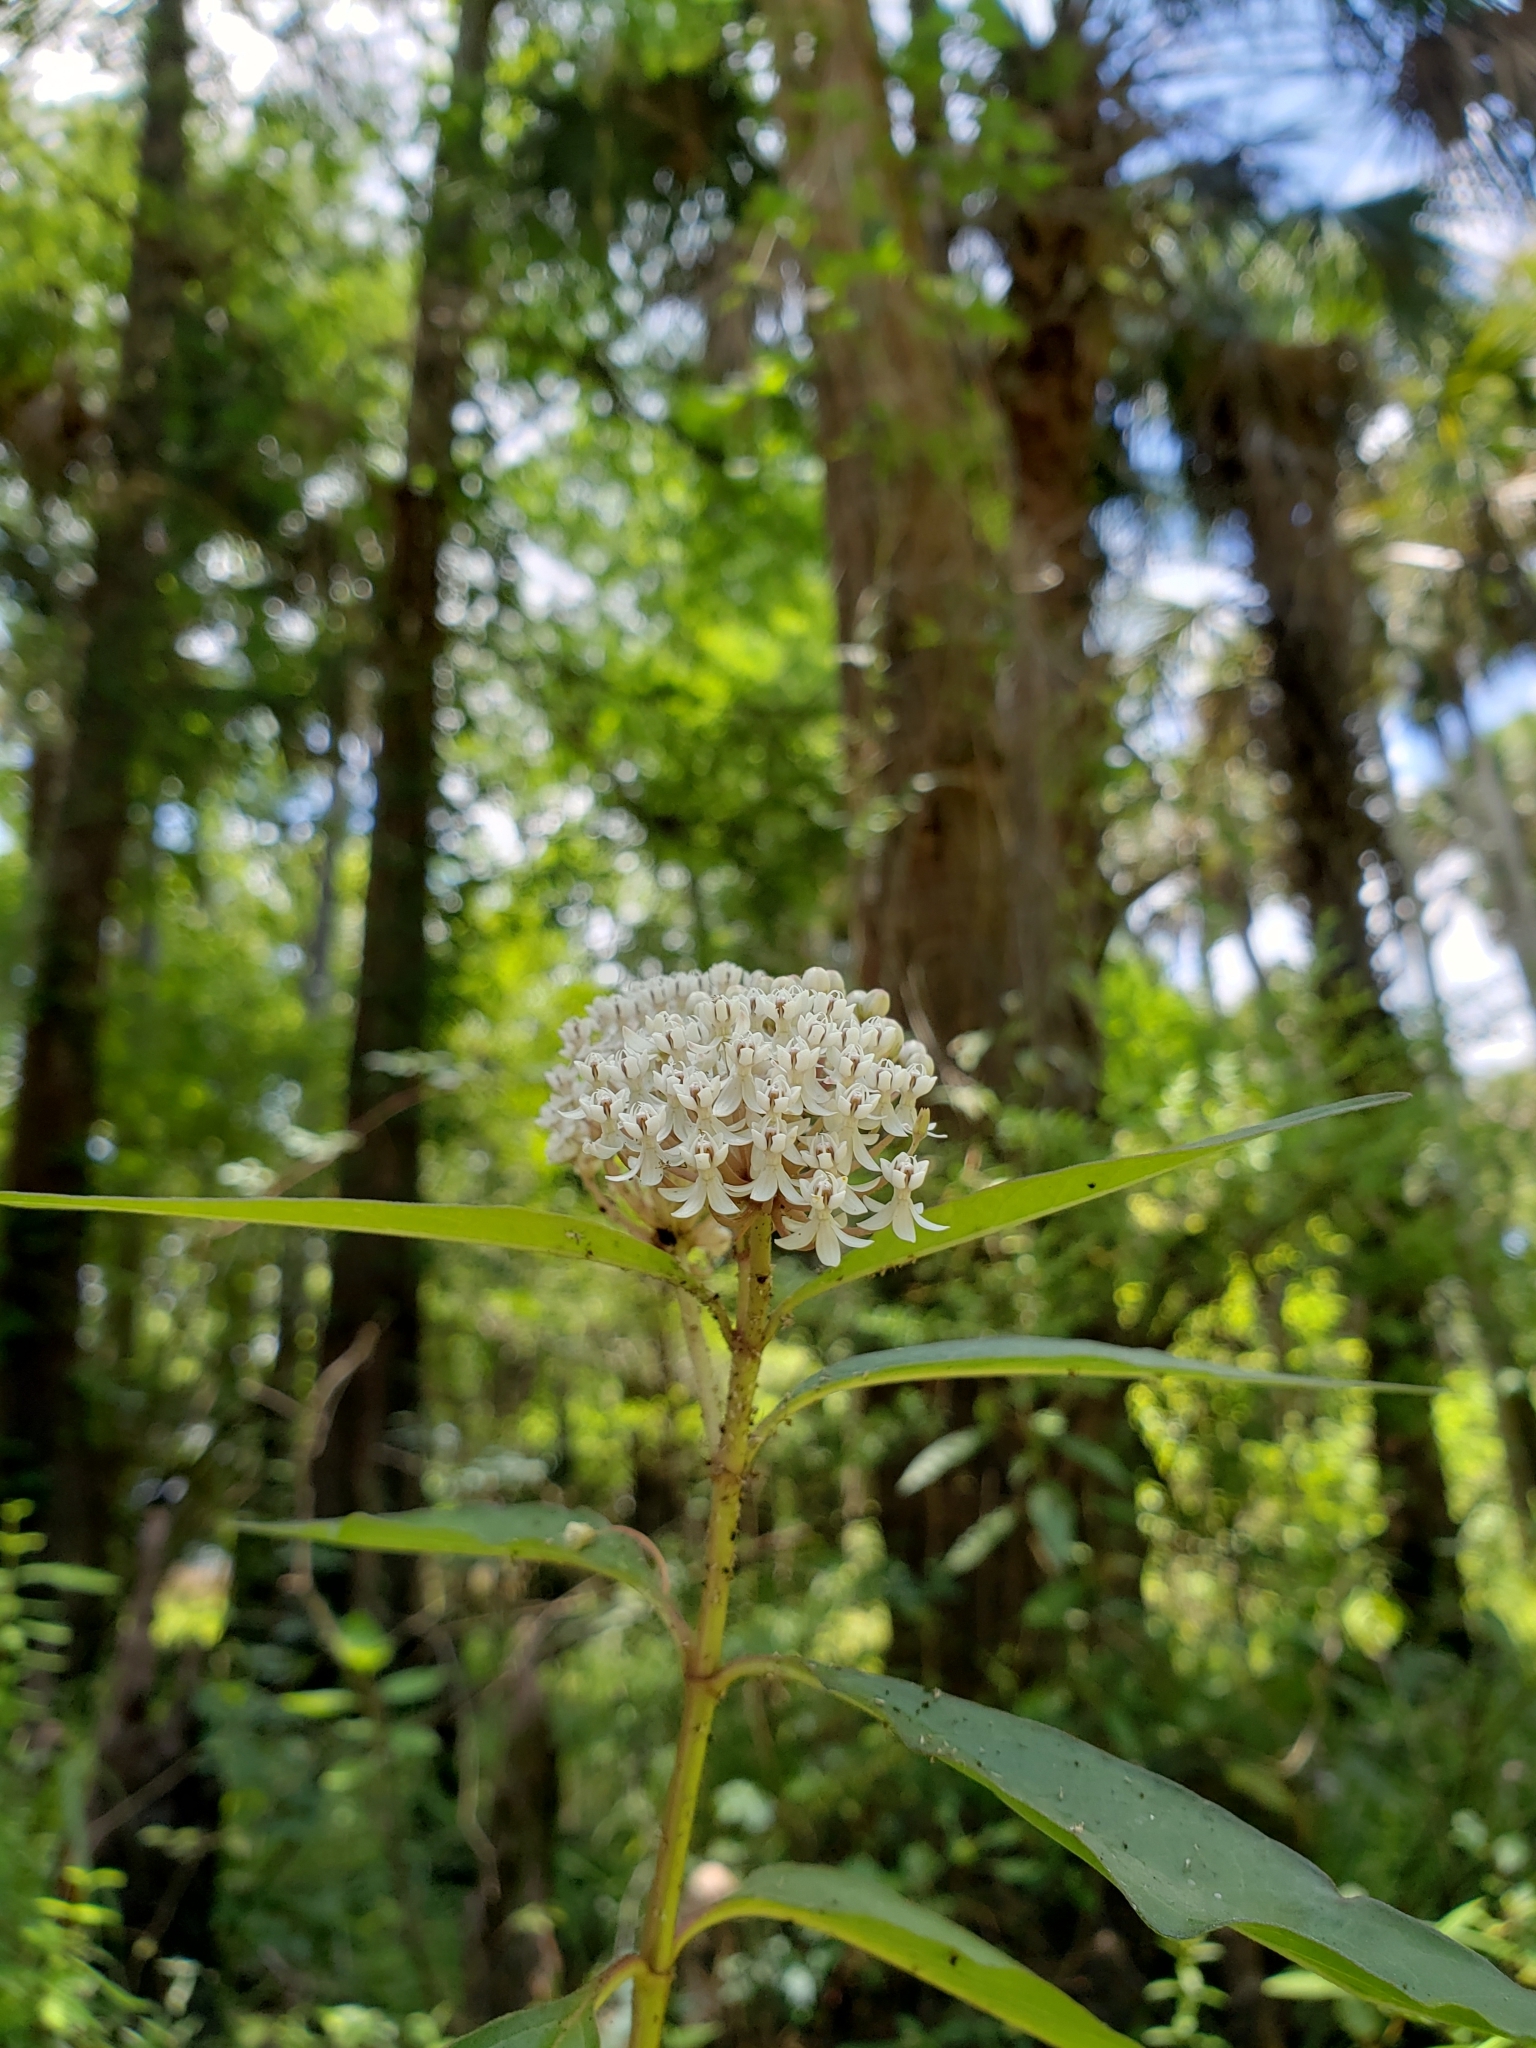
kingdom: Plantae
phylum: Tracheophyta
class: Magnoliopsida
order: Gentianales
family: Apocynaceae
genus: Asclepias
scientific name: Asclepias perennis
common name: Smooth-seed milkweed
